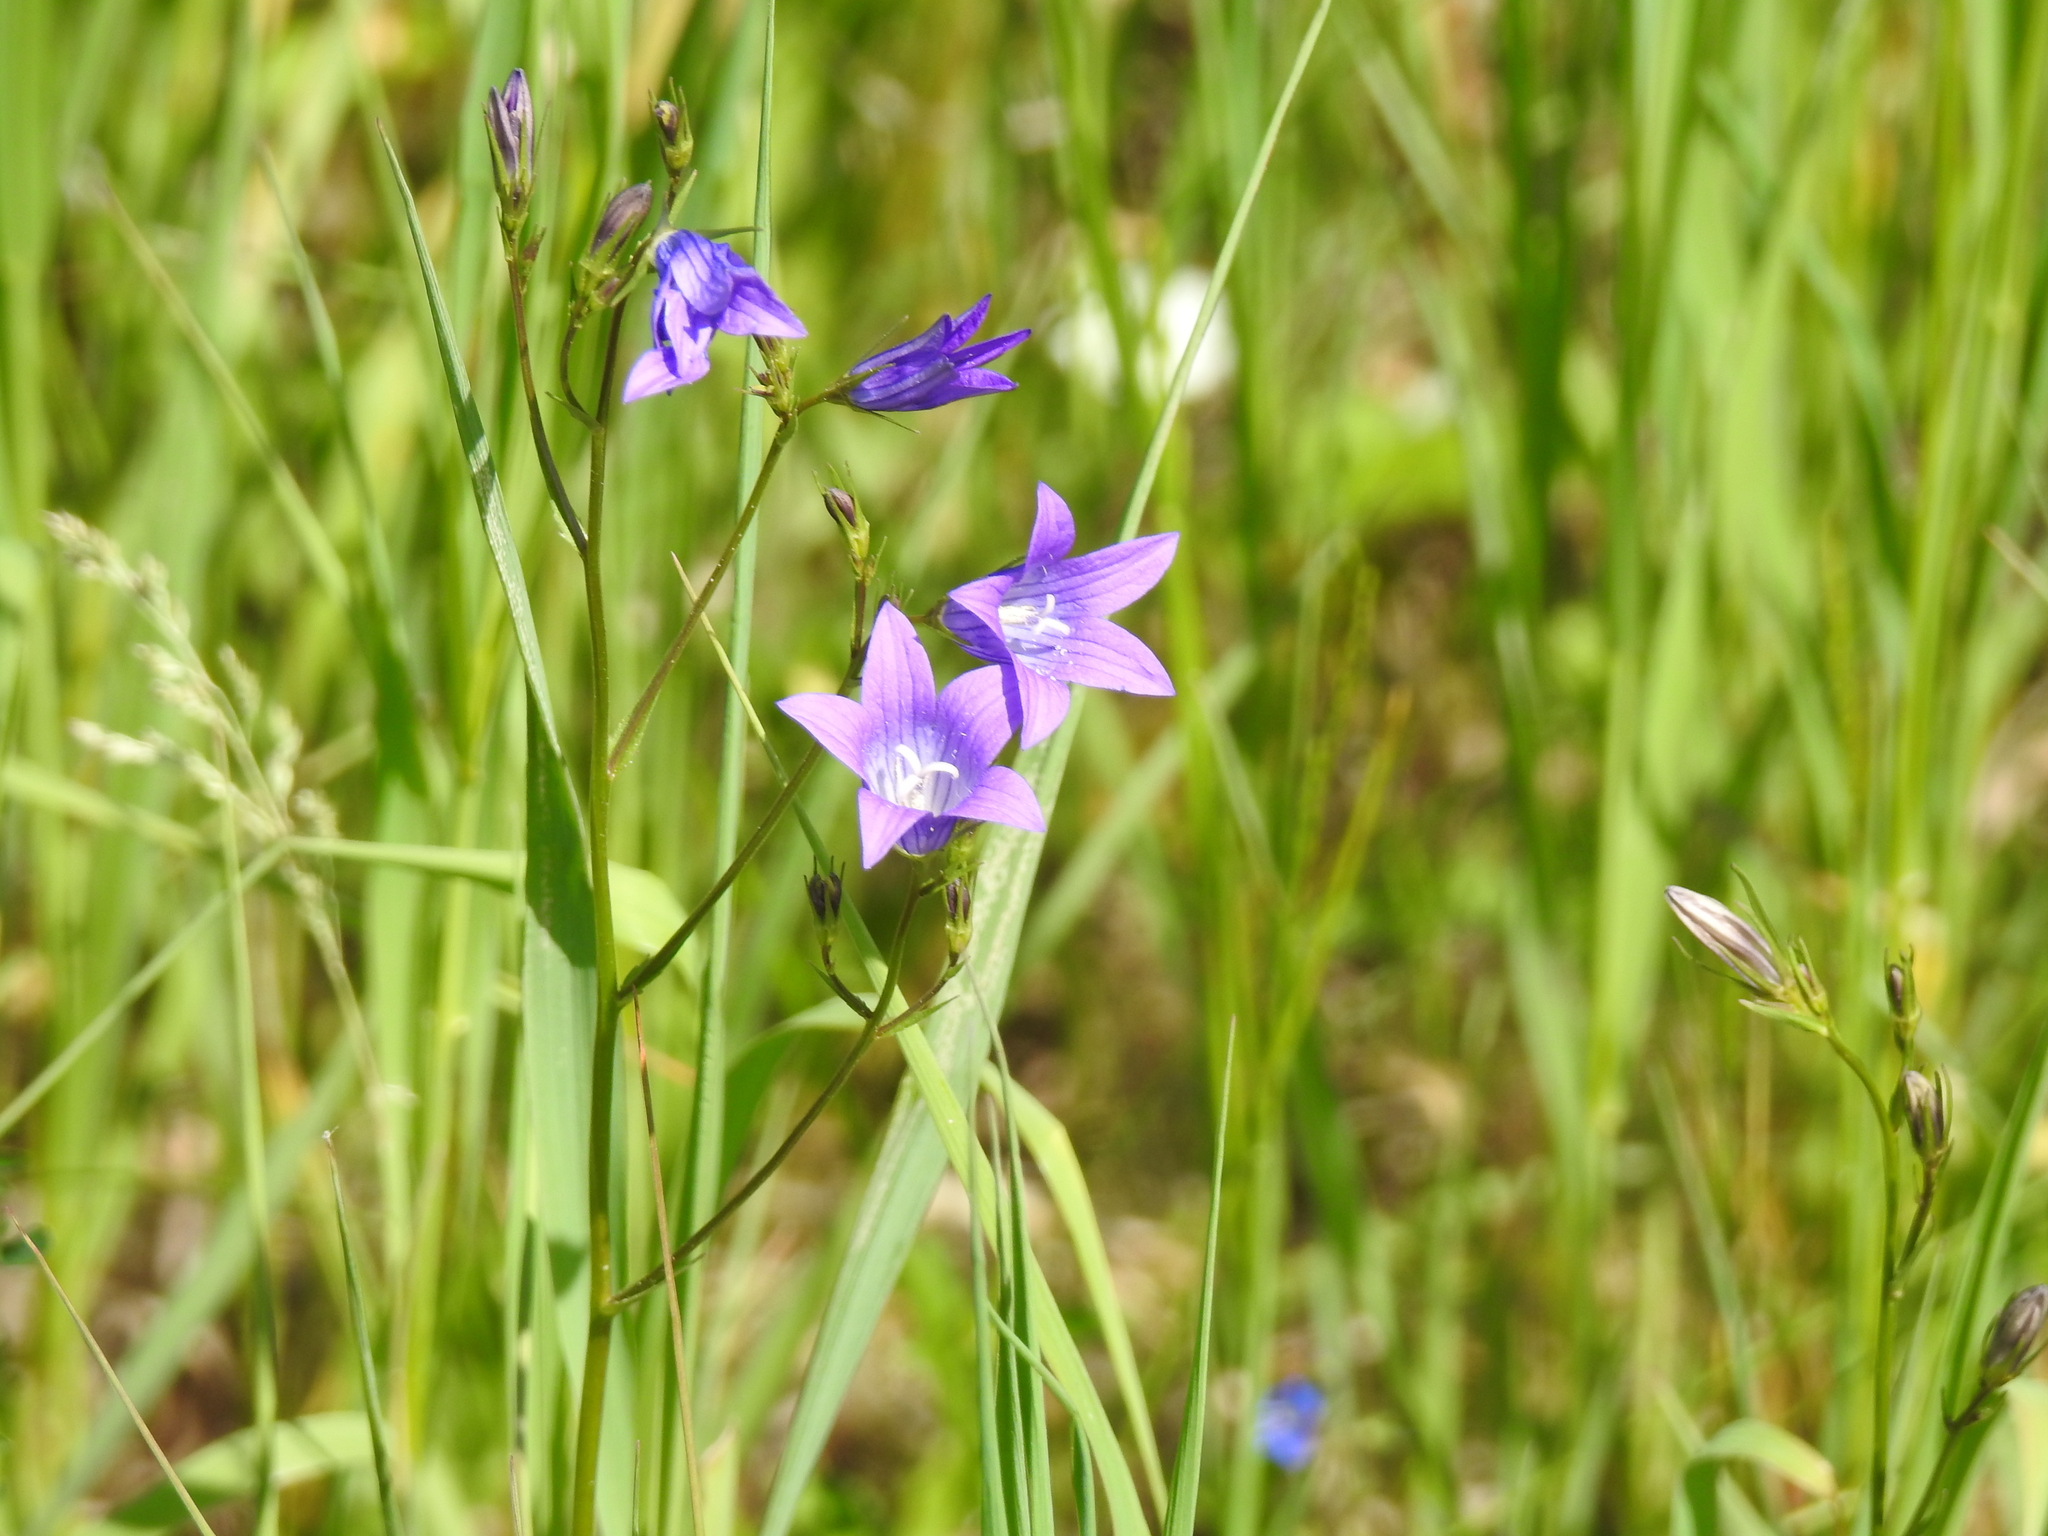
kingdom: Plantae
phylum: Tracheophyta
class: Magnoliopsida
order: Asterales
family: Campanulaceae
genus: Campanula
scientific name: Campanula patula
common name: Spreading bellflower
